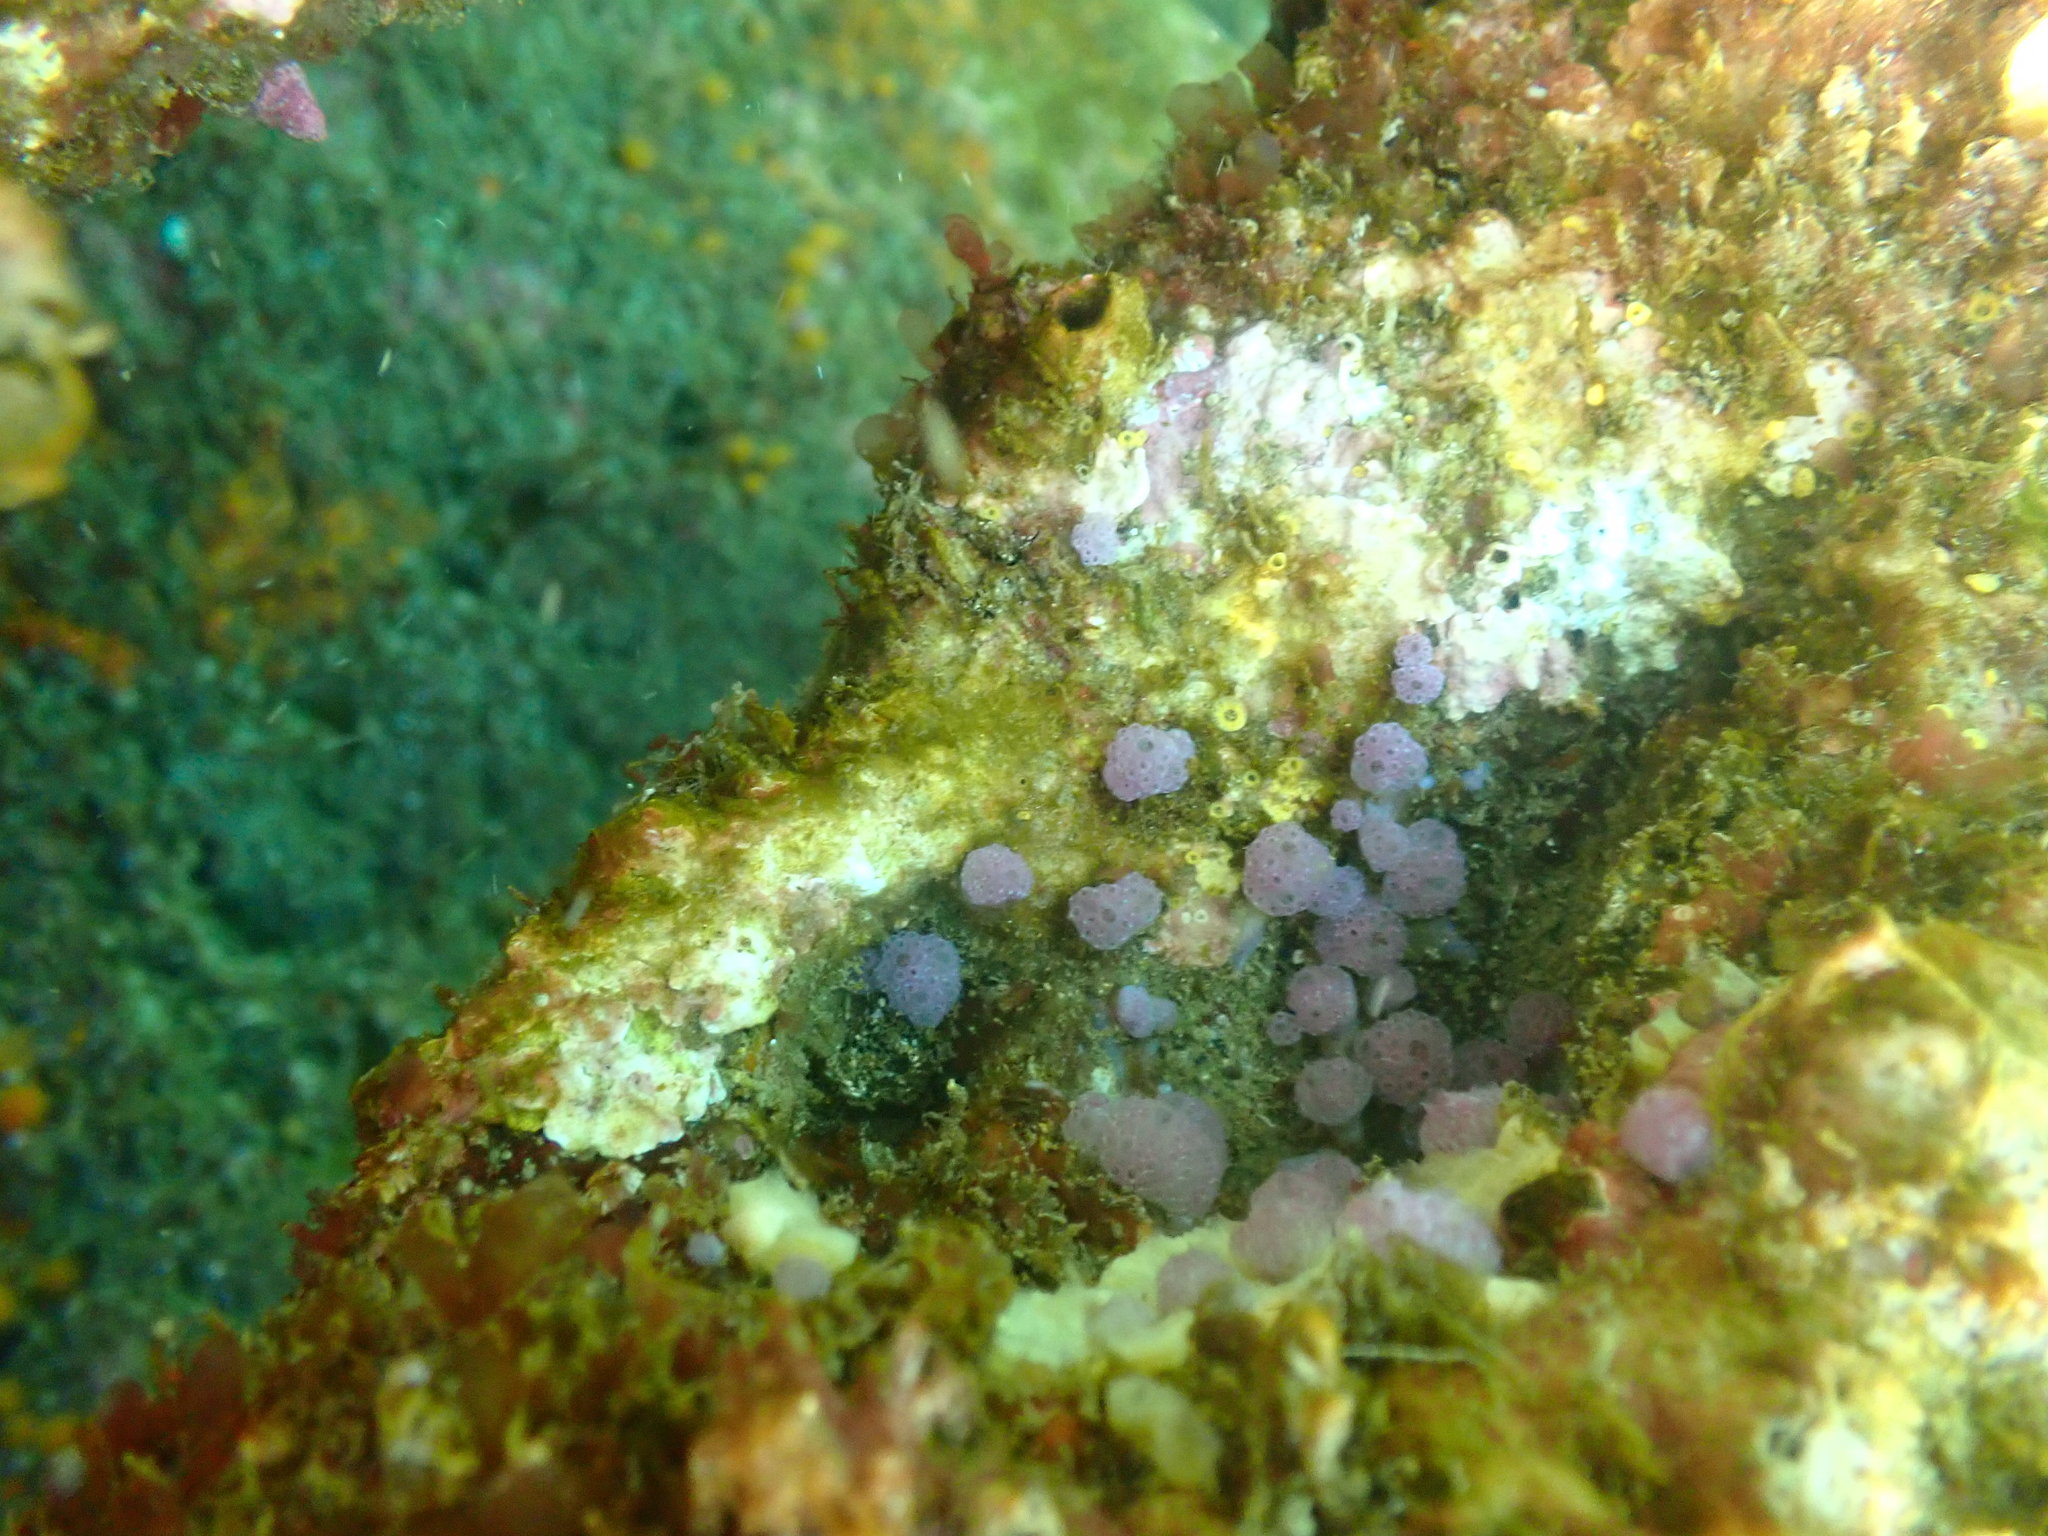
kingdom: Animalia
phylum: Chordata
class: Ascidiacea
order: Aplousobranchia
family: Holozoidae
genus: Hypsistozoa
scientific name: Hypsistozoa fasmeriana
